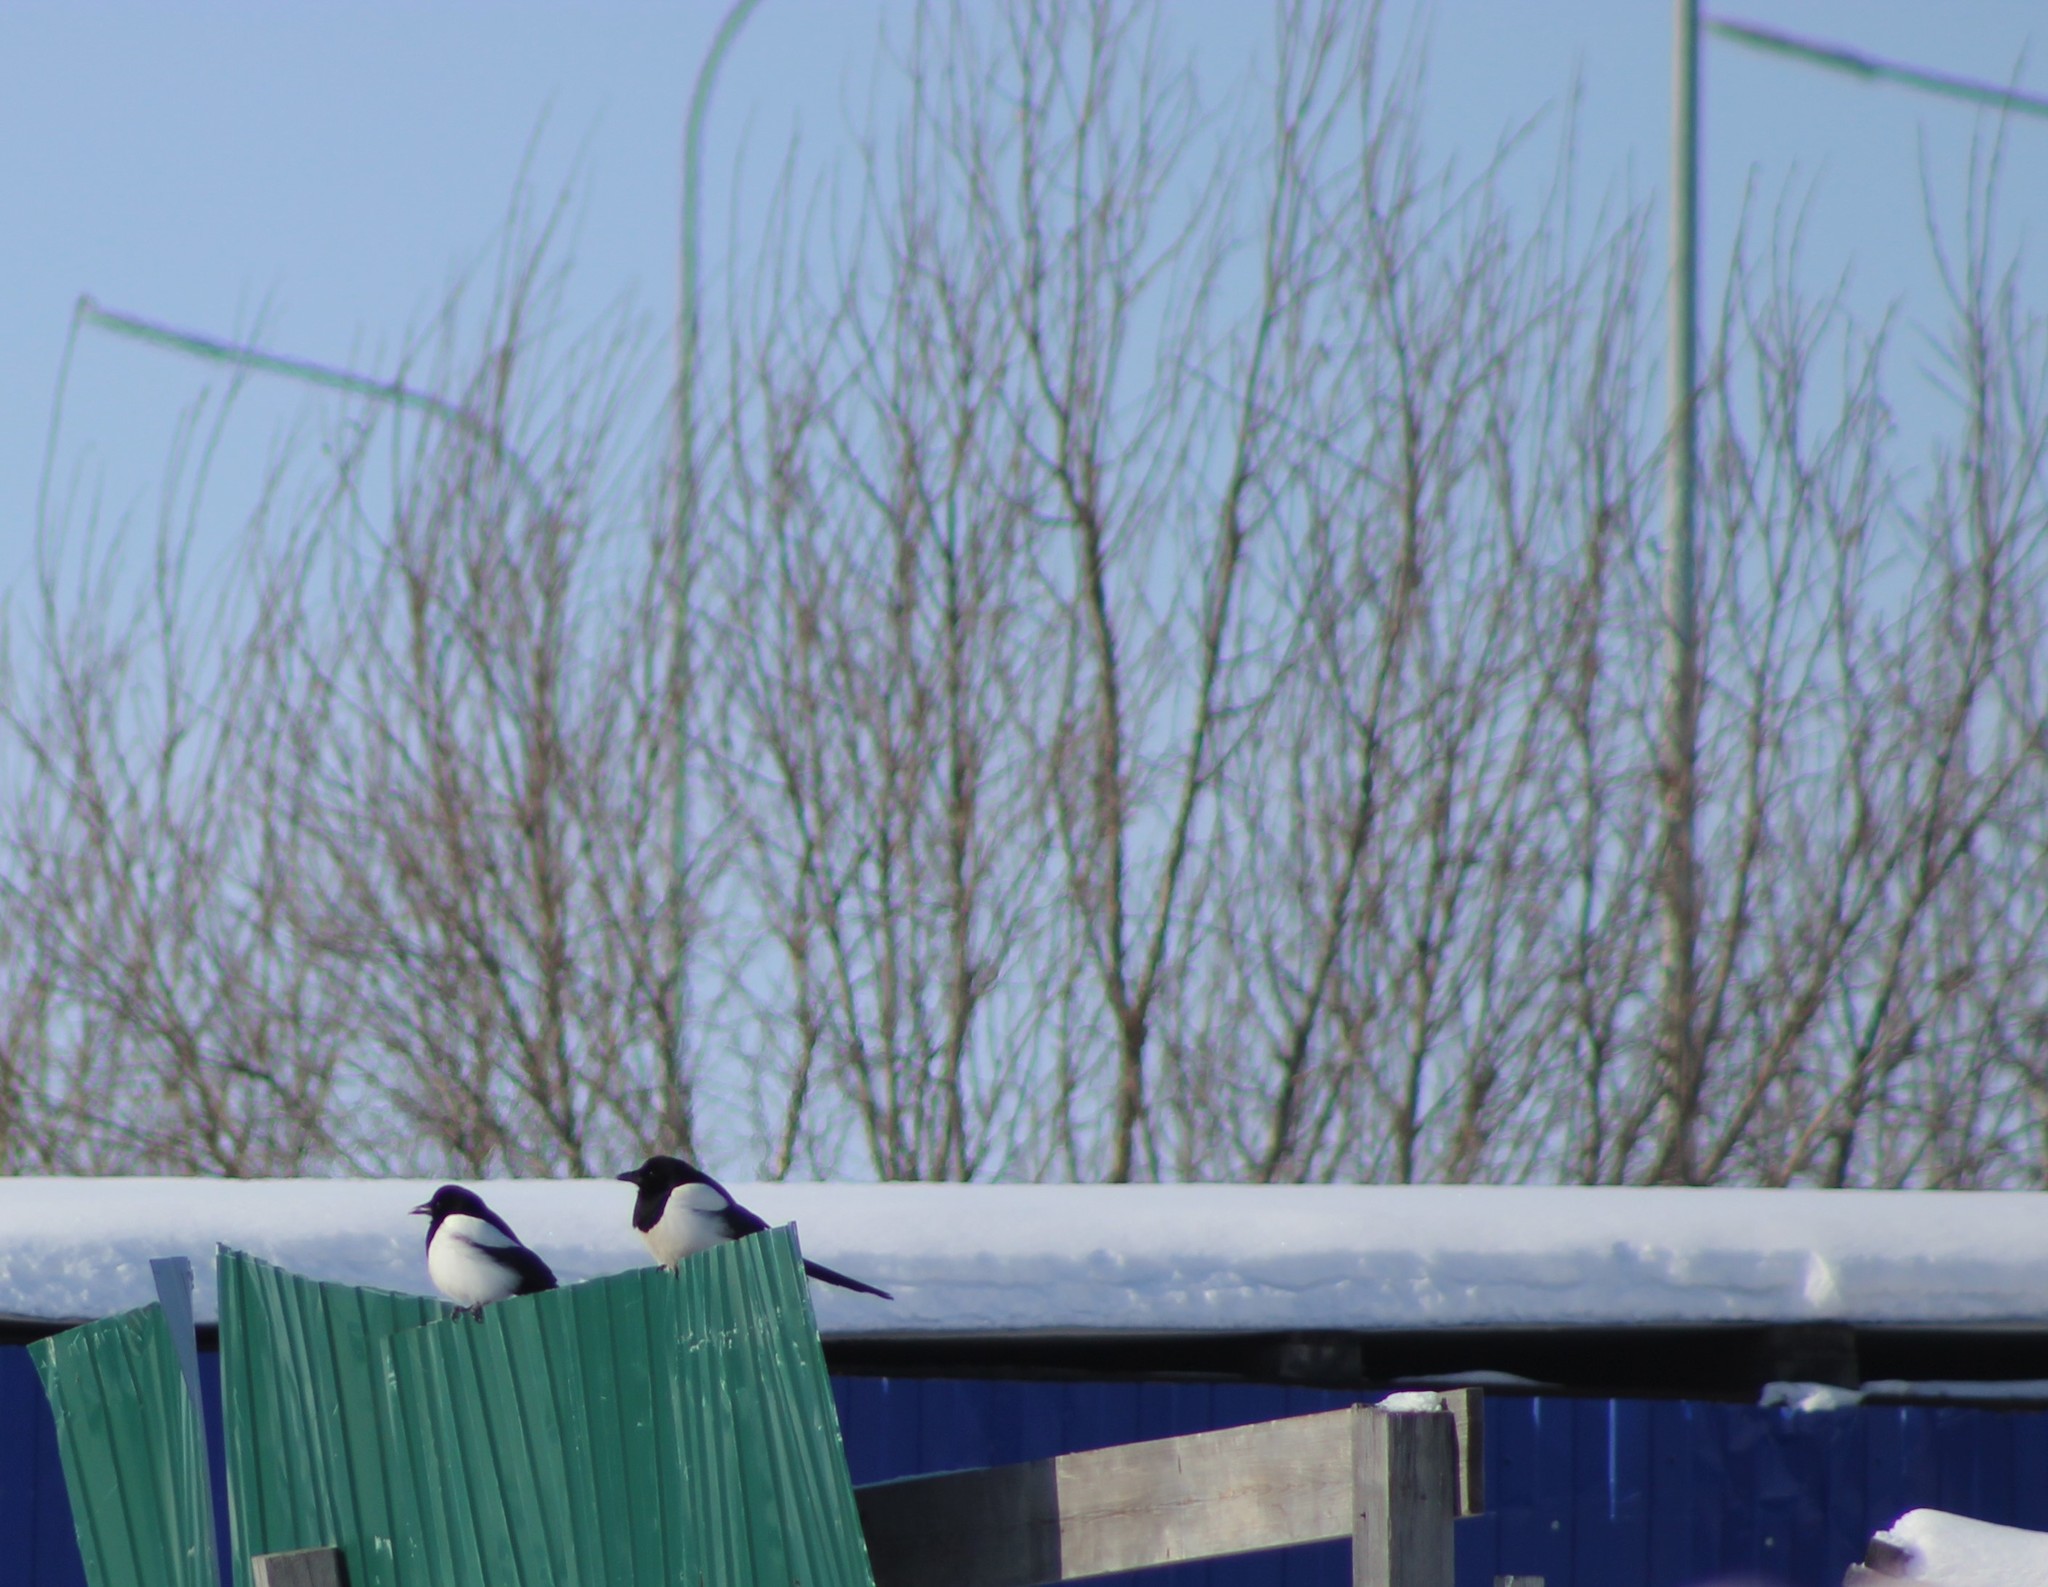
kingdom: Animalia
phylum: Chordata
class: Aves
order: Passeriformes
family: Corvidae
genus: Pica
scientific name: Pica pica
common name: Eurasian magpie
